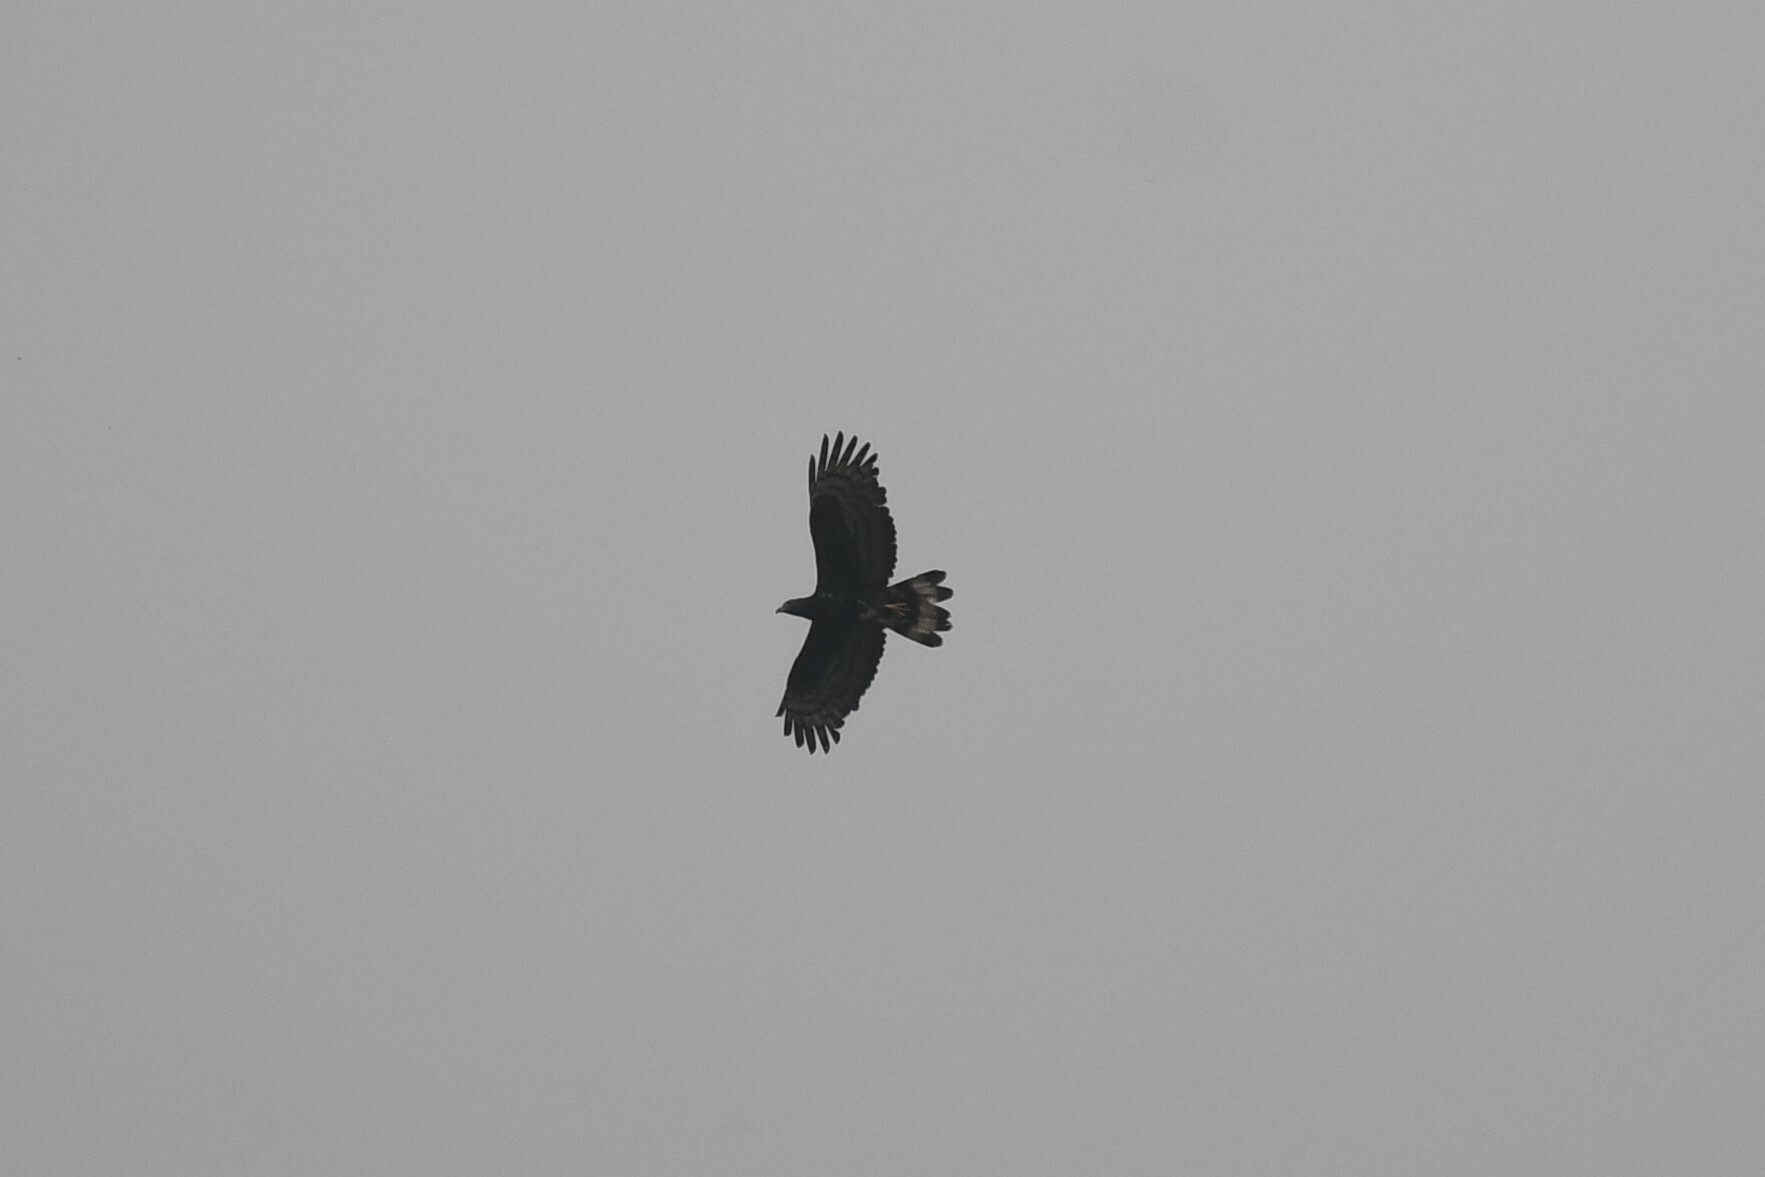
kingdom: Animalia
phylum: Chordata
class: Aves
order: Accipitriformes
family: Accipitridae
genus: Pernis
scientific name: Pernis ptilorhynchus
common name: Crested honey buzzard
